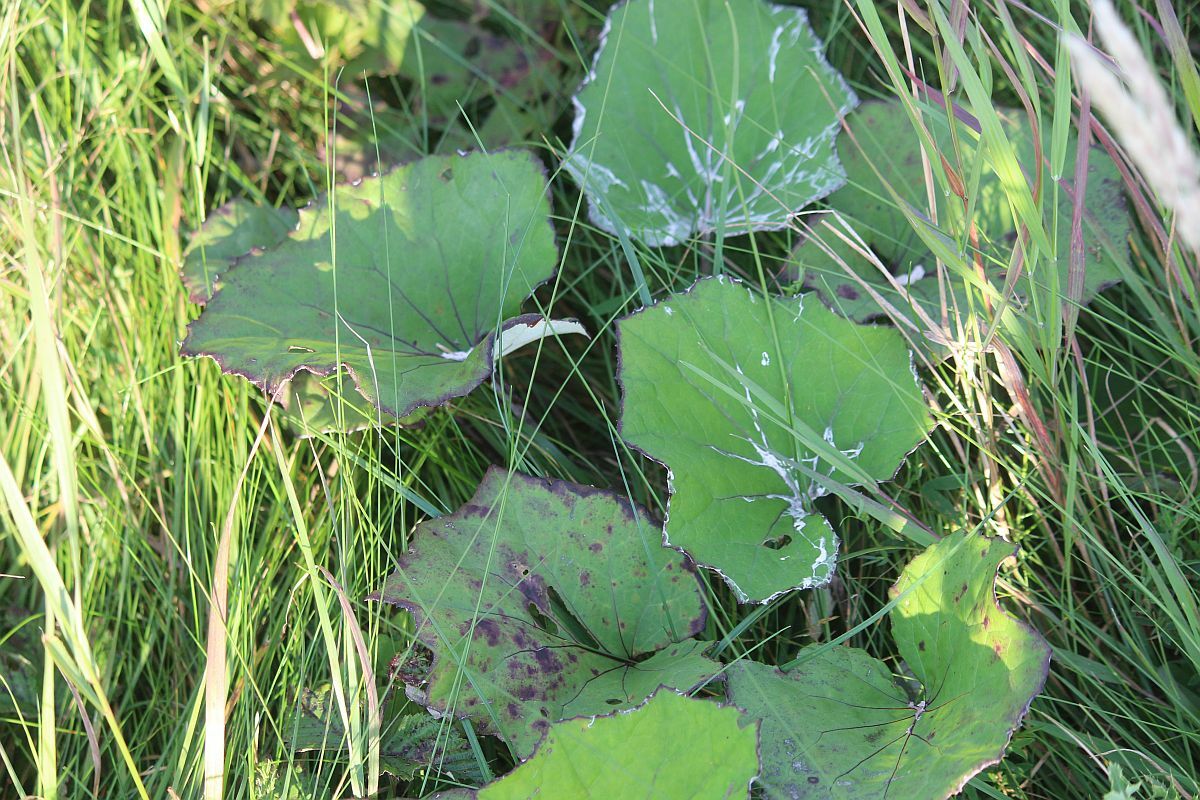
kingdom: Plantae
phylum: Tracheophyta
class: Magnoliopsida
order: Asterales
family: Asteraceae
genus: Tussilago
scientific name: Tussilago farfara
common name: Coltsfoot
